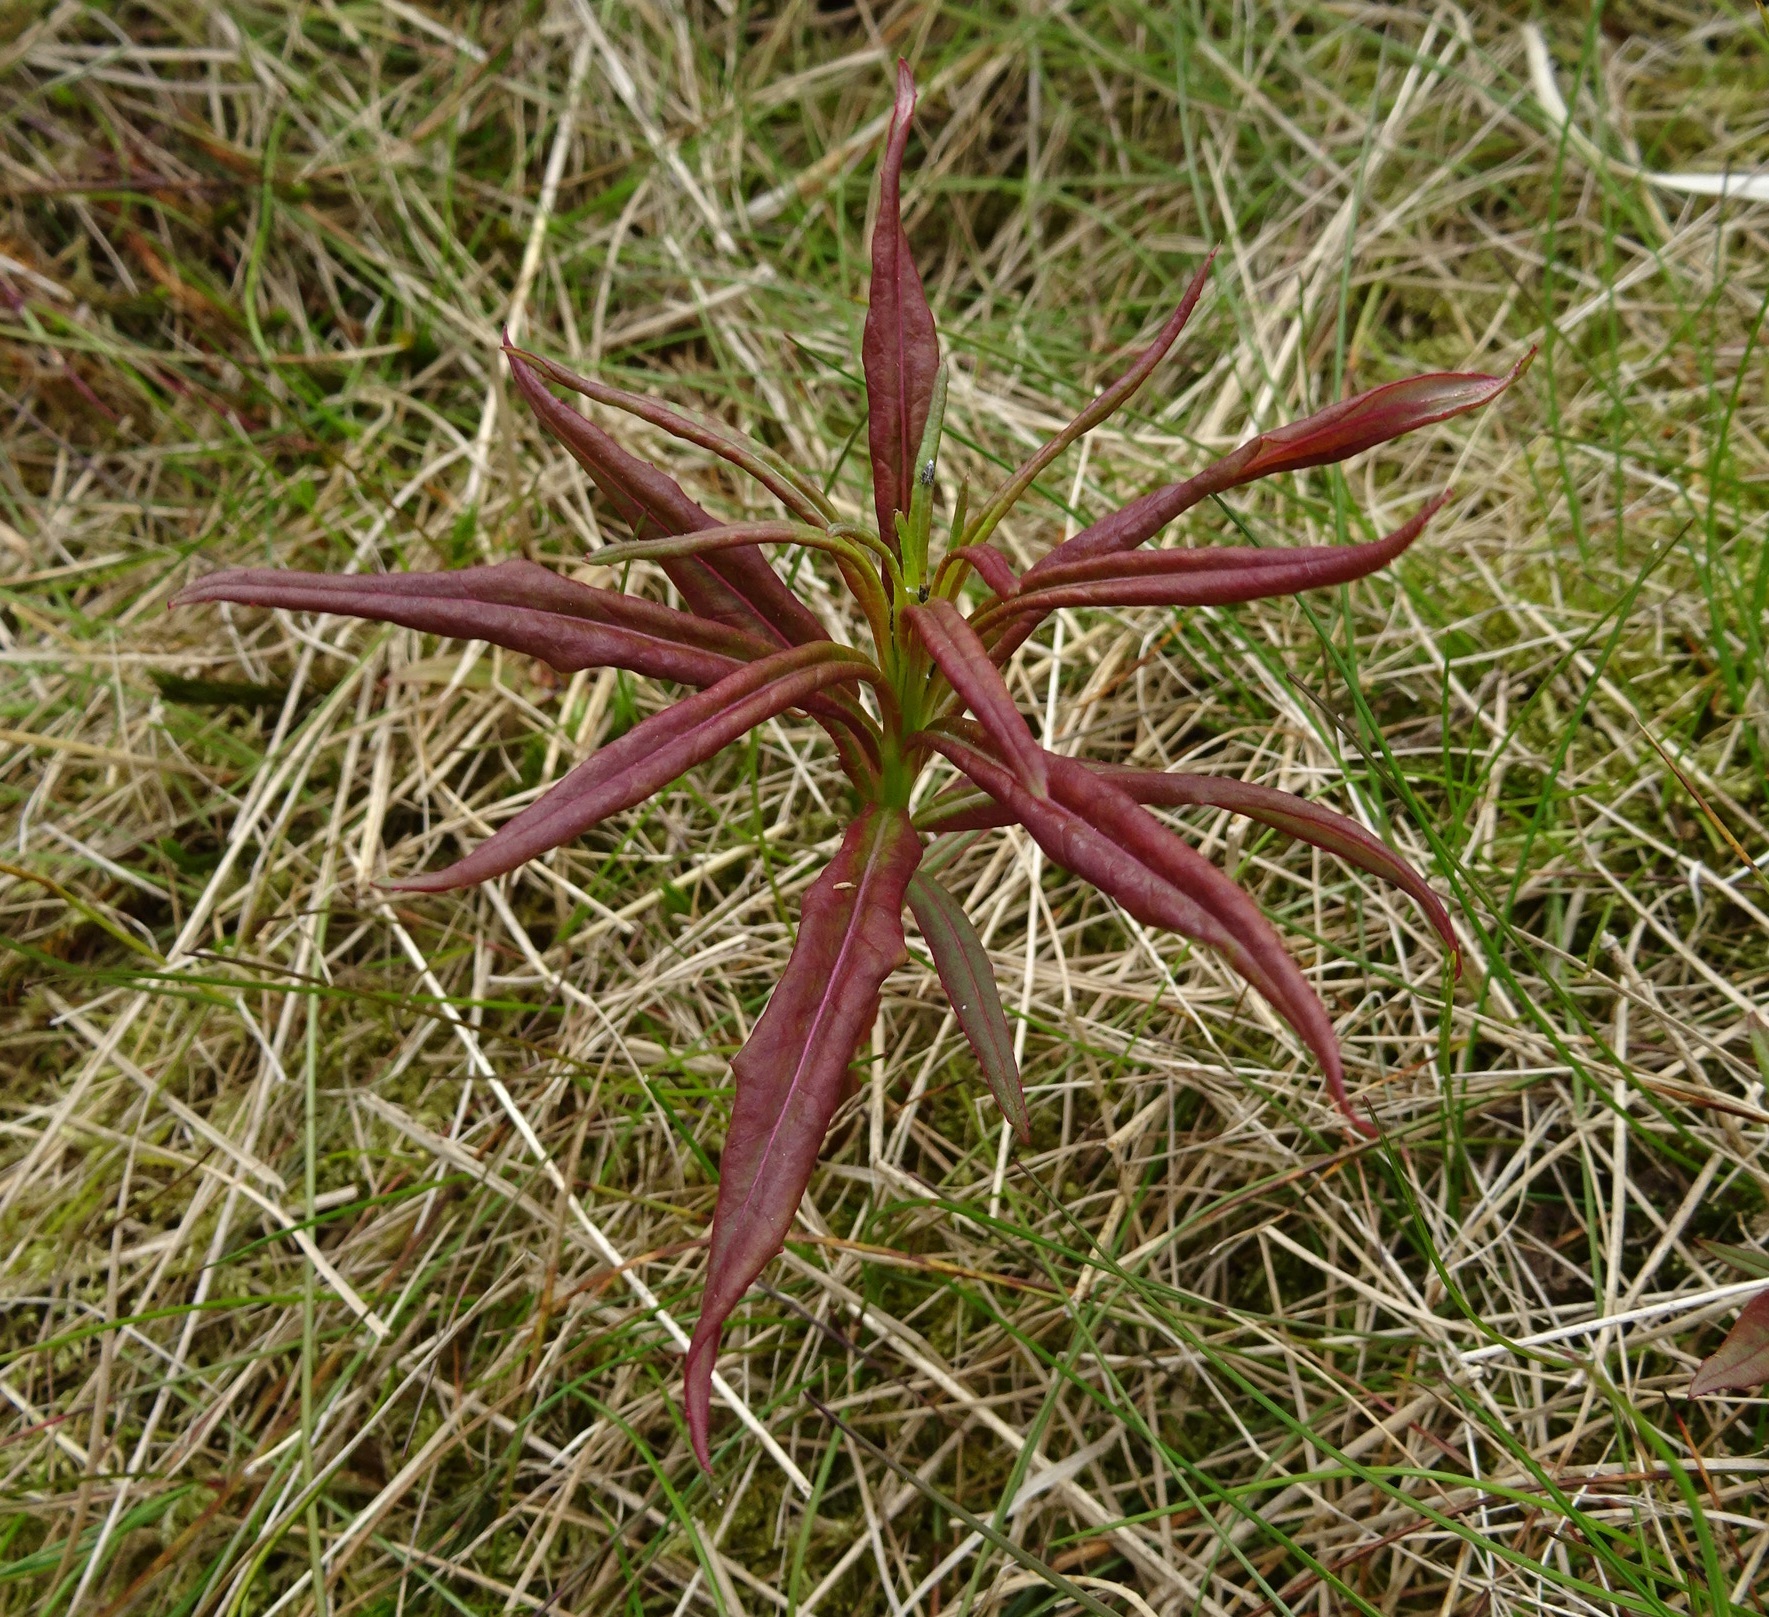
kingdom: Plantae
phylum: Tracheophyta
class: Magnoliopsida
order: Myrtales
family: Onagraceae
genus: Chamaenerion
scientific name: Chamaenerion angustifolium
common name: Fireweed
